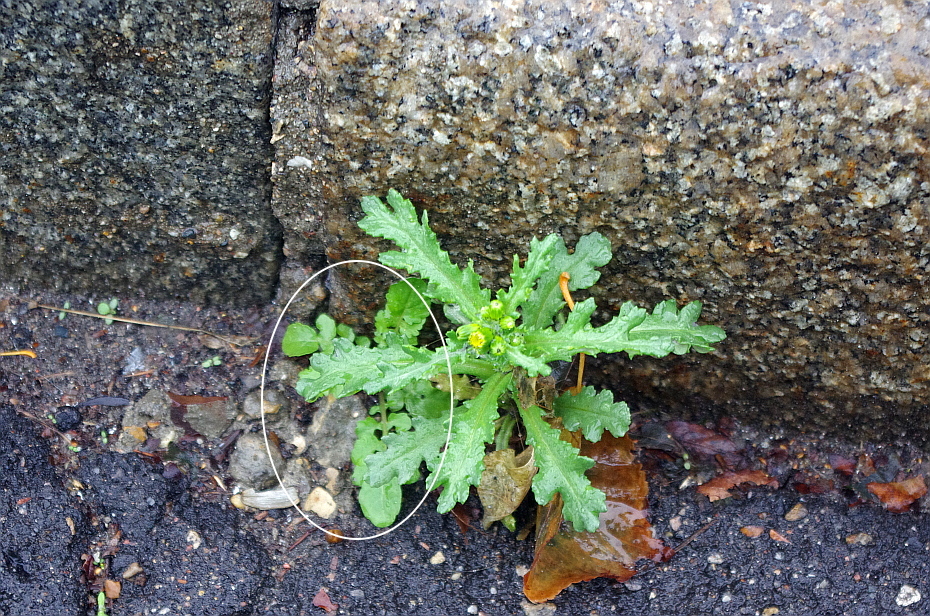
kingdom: Plantae
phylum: Tracheophyta
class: Magnoliopsida
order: Brassicales
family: Brassicaceae
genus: Rorippa
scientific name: Rorippa palustris
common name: Marsh yellow-cress
